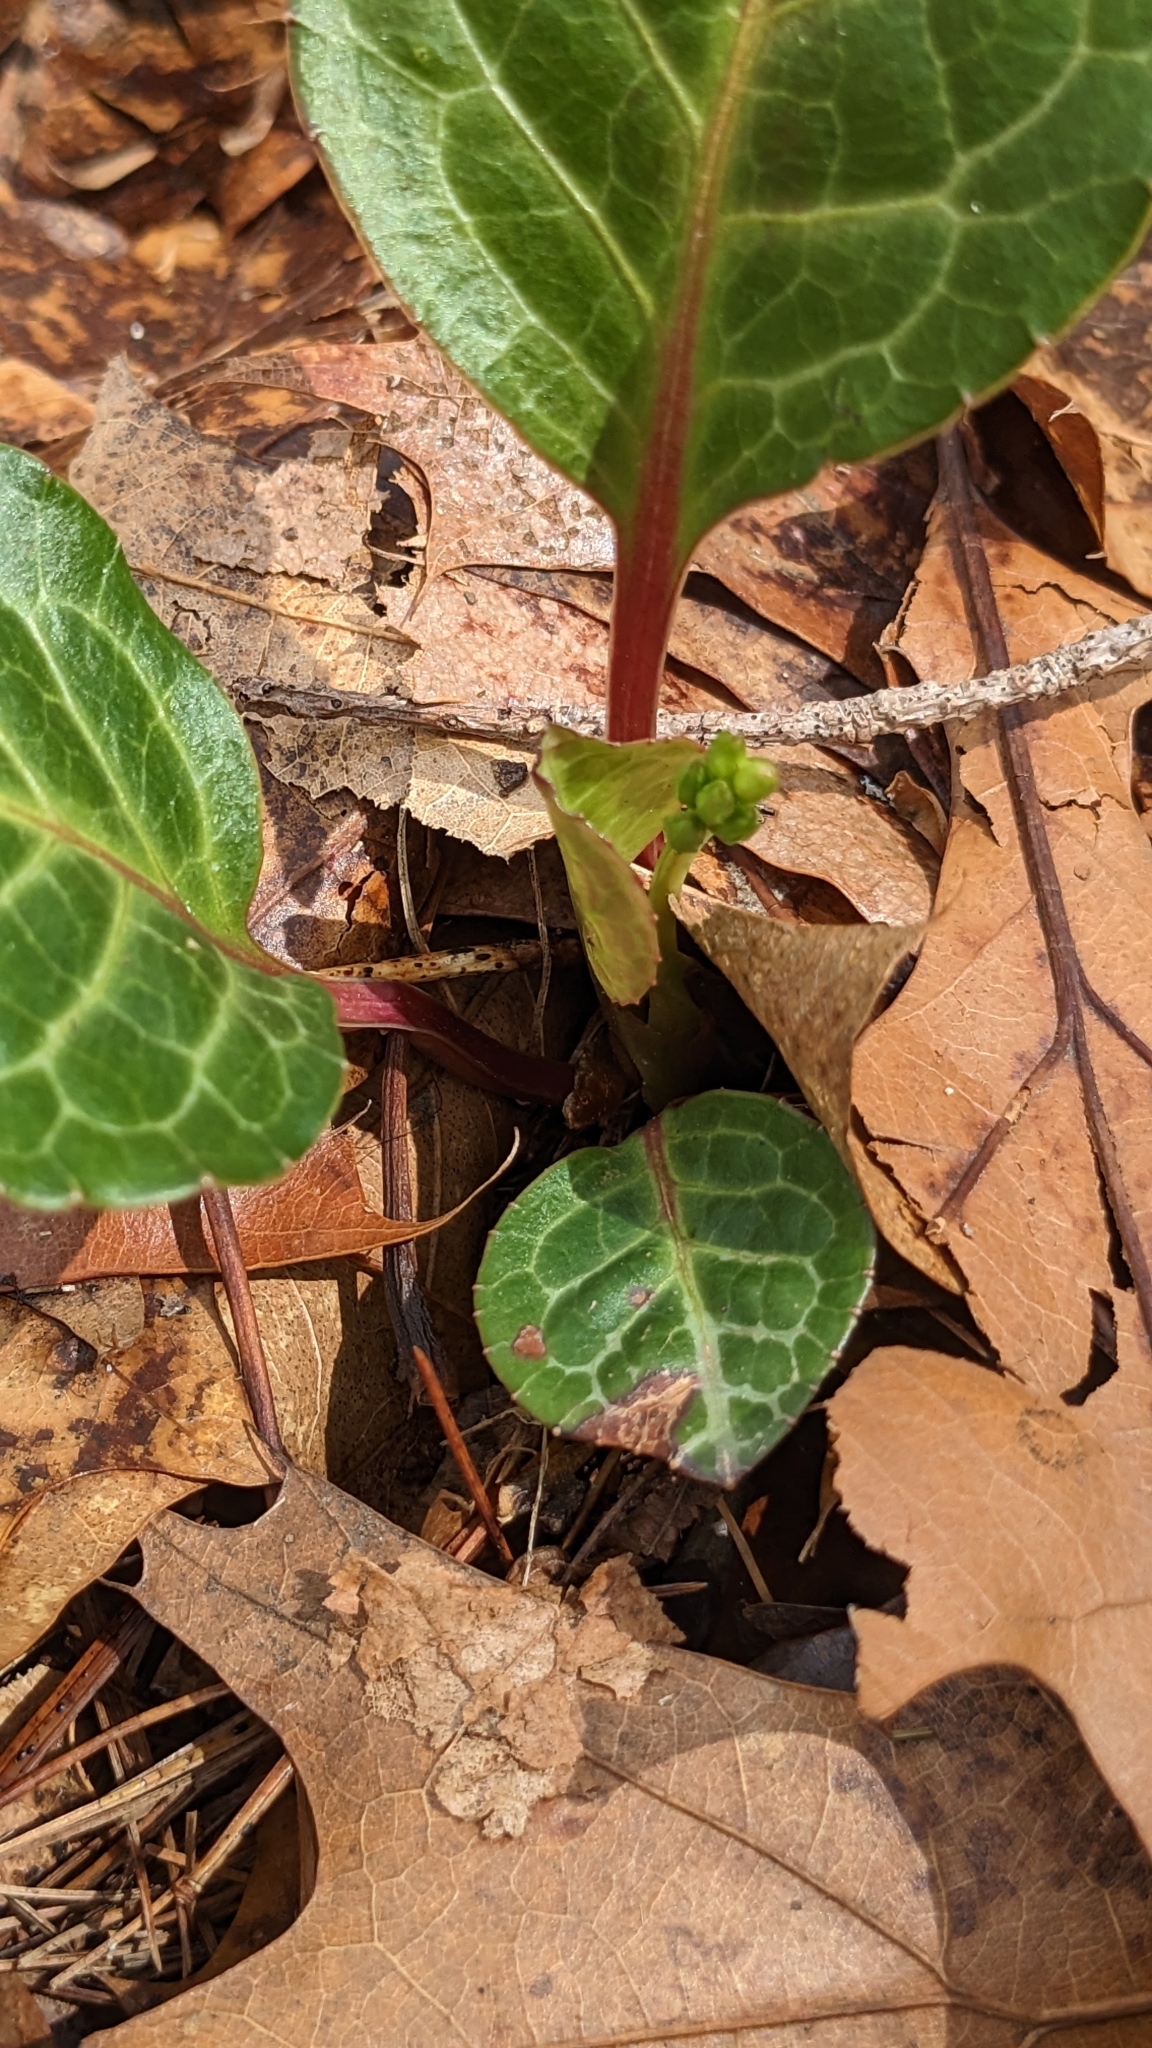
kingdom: Plantae
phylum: Tracheophyta
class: Magnoliopsida
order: Ericales
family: Ericaceae
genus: Pyrola
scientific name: Pyrola americana
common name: American wintergreen
